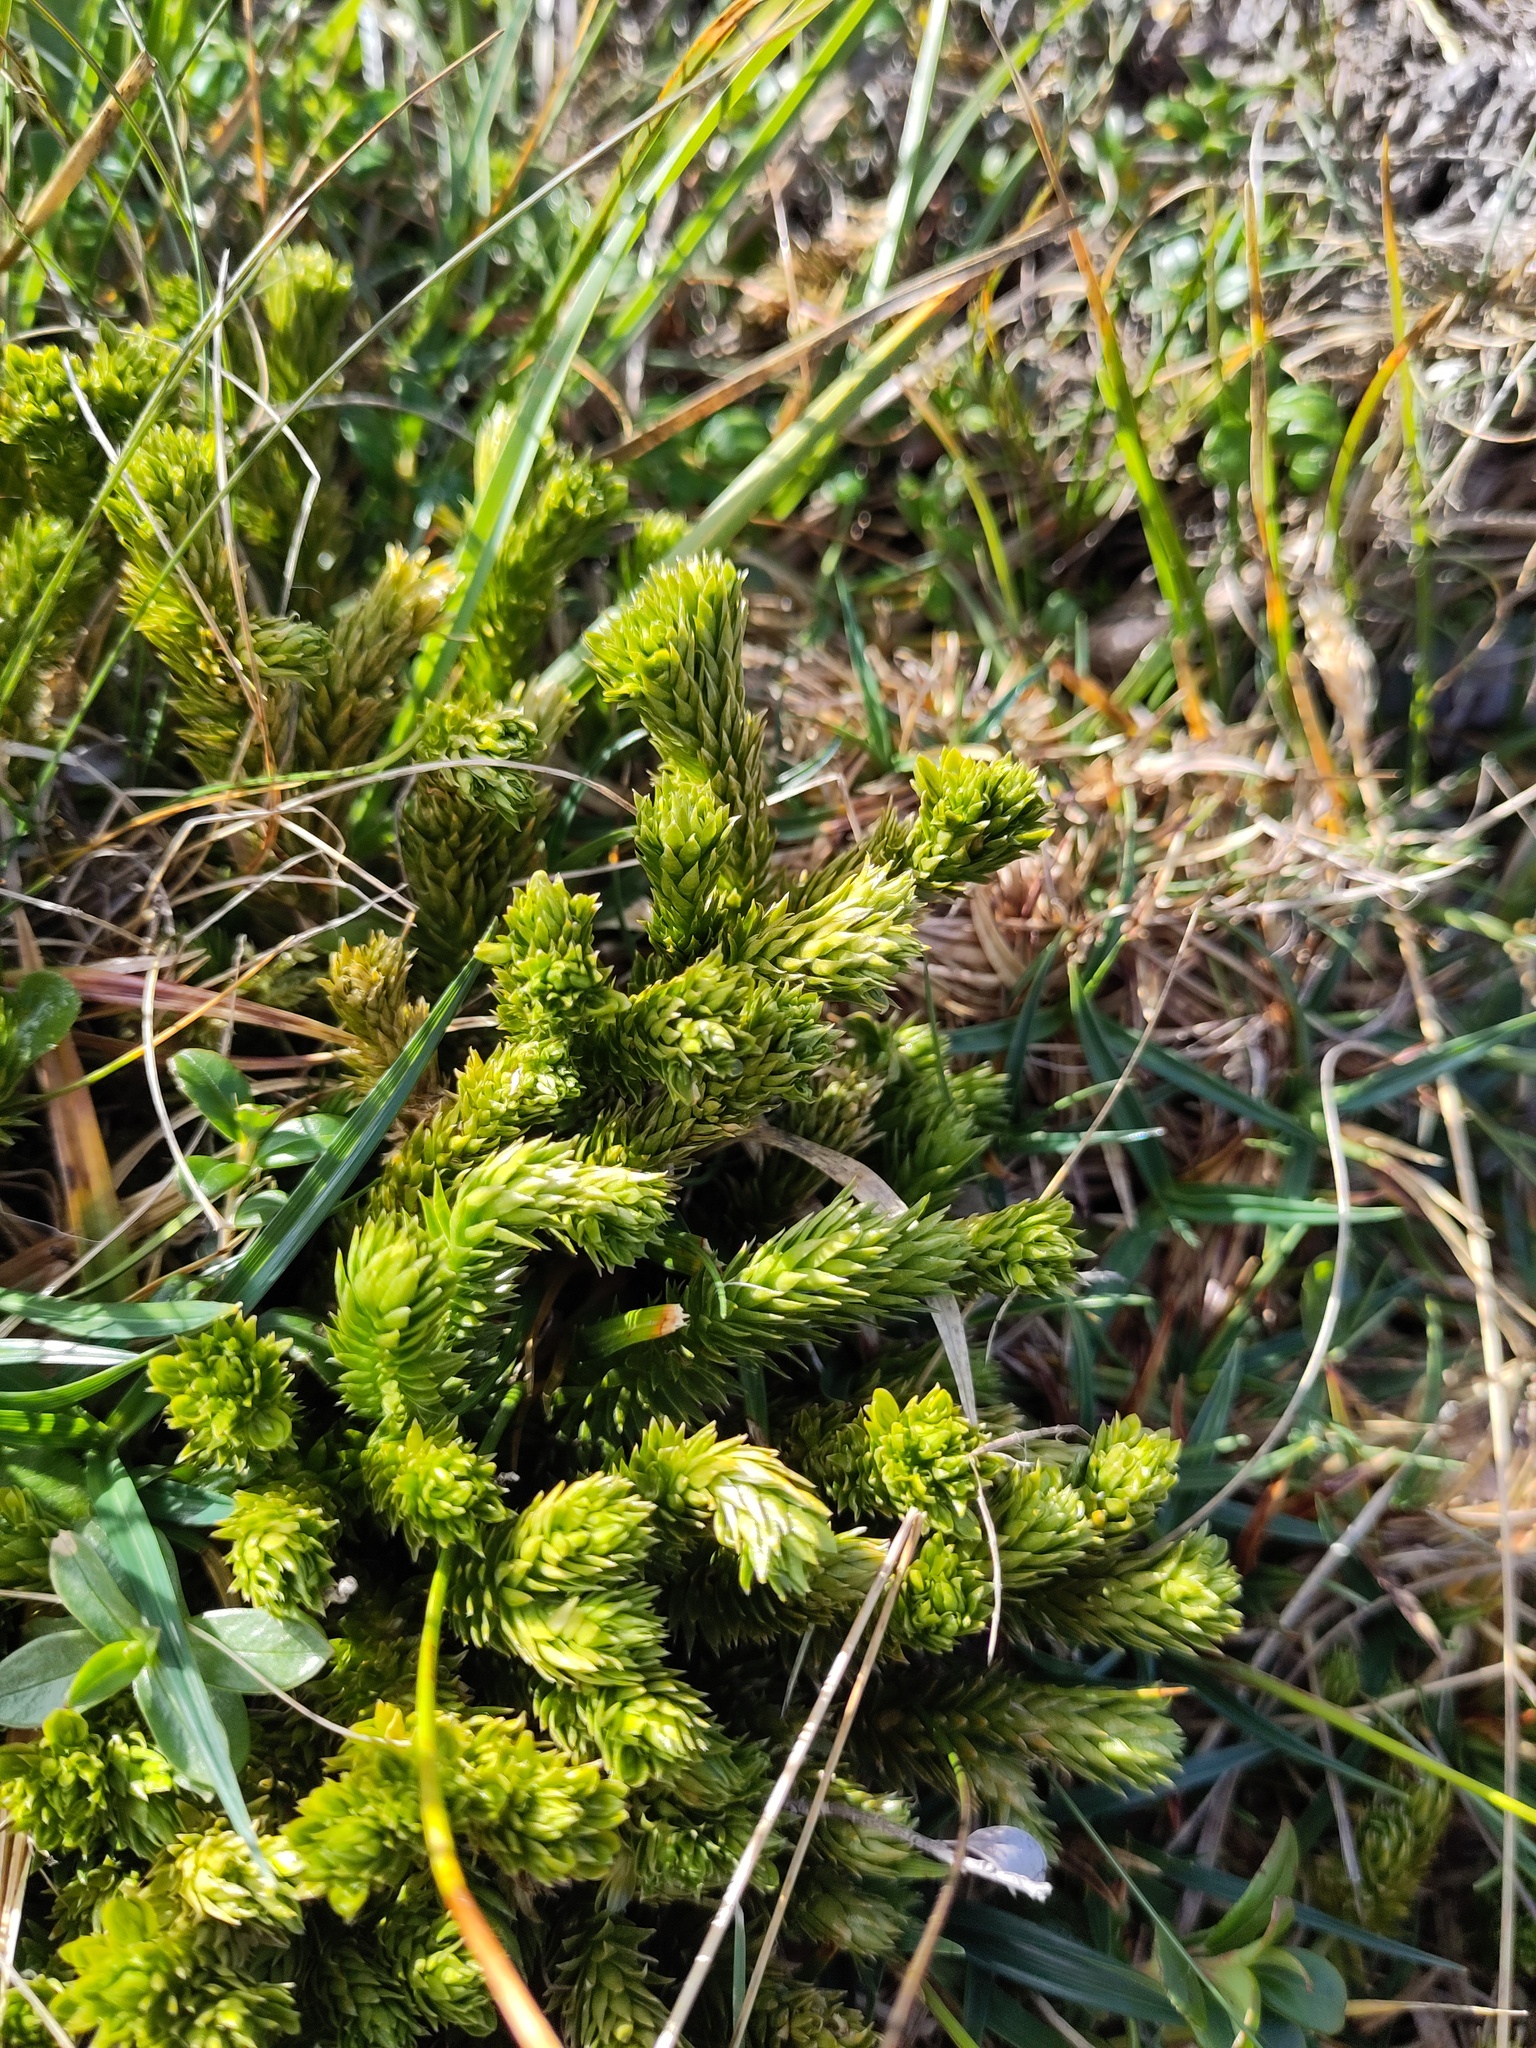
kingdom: Plantae
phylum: Tracheophyta
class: Lycopodiopsida
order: Lycopodiales
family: Lycopodiaceae
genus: Huperzia
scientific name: Huperzia selago
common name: Northern firmoss
